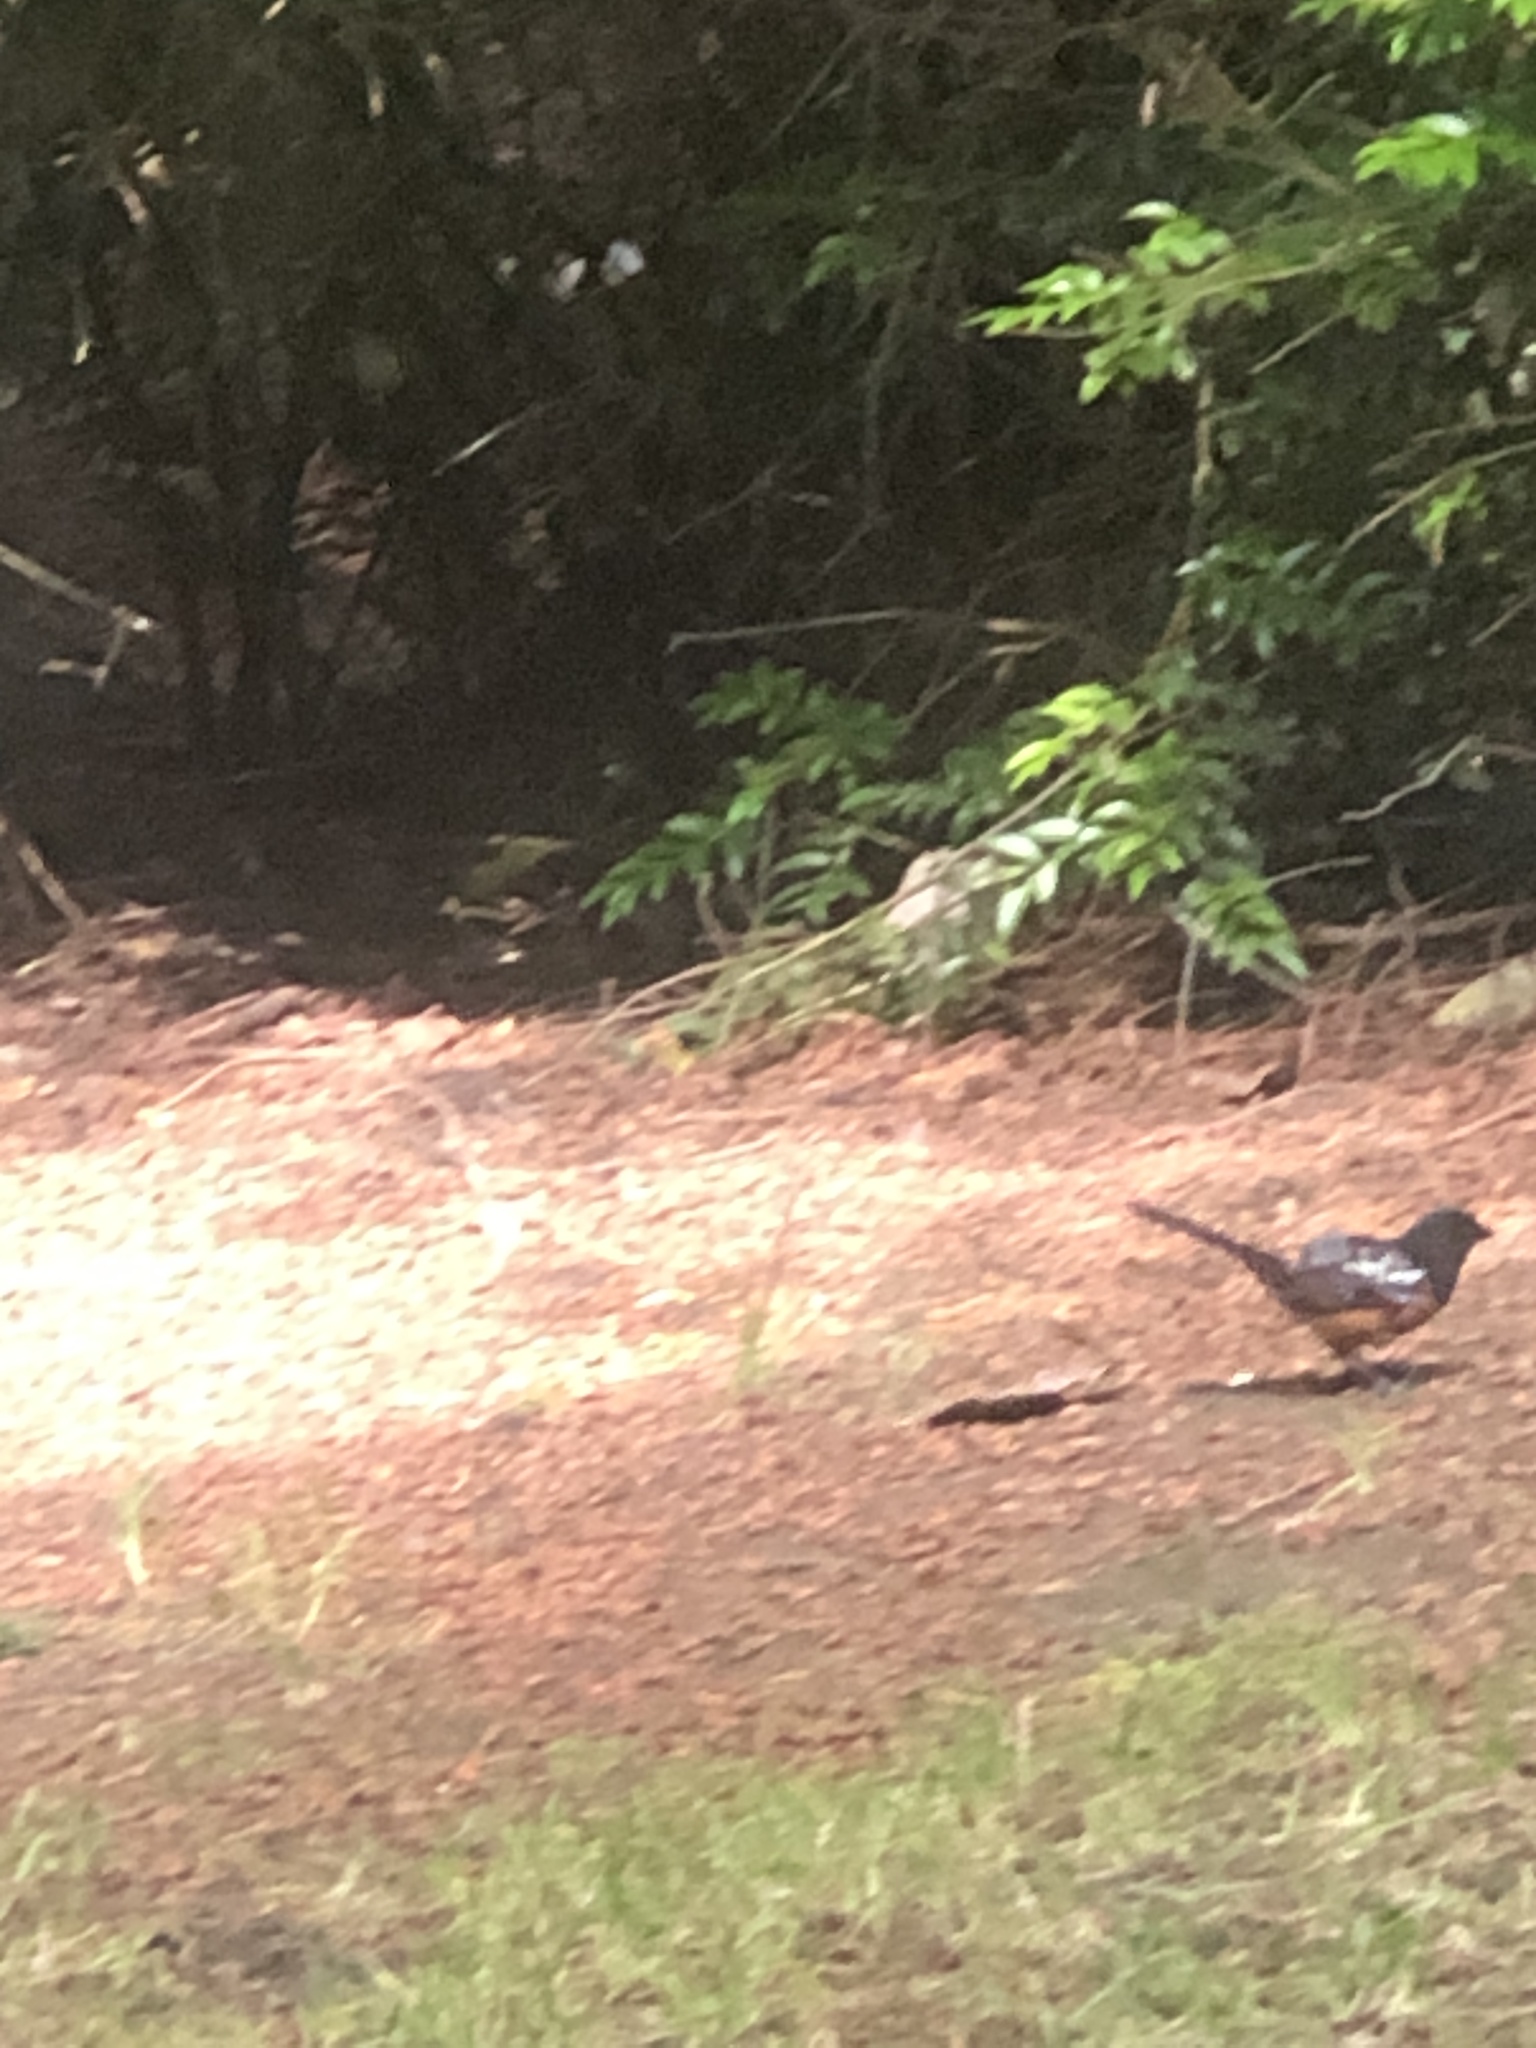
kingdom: Animalia
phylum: Chordata
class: Aves
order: Passeriformes
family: Passerellidae
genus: Pipilo
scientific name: Pipilo maculatus
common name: Spotted towhee
